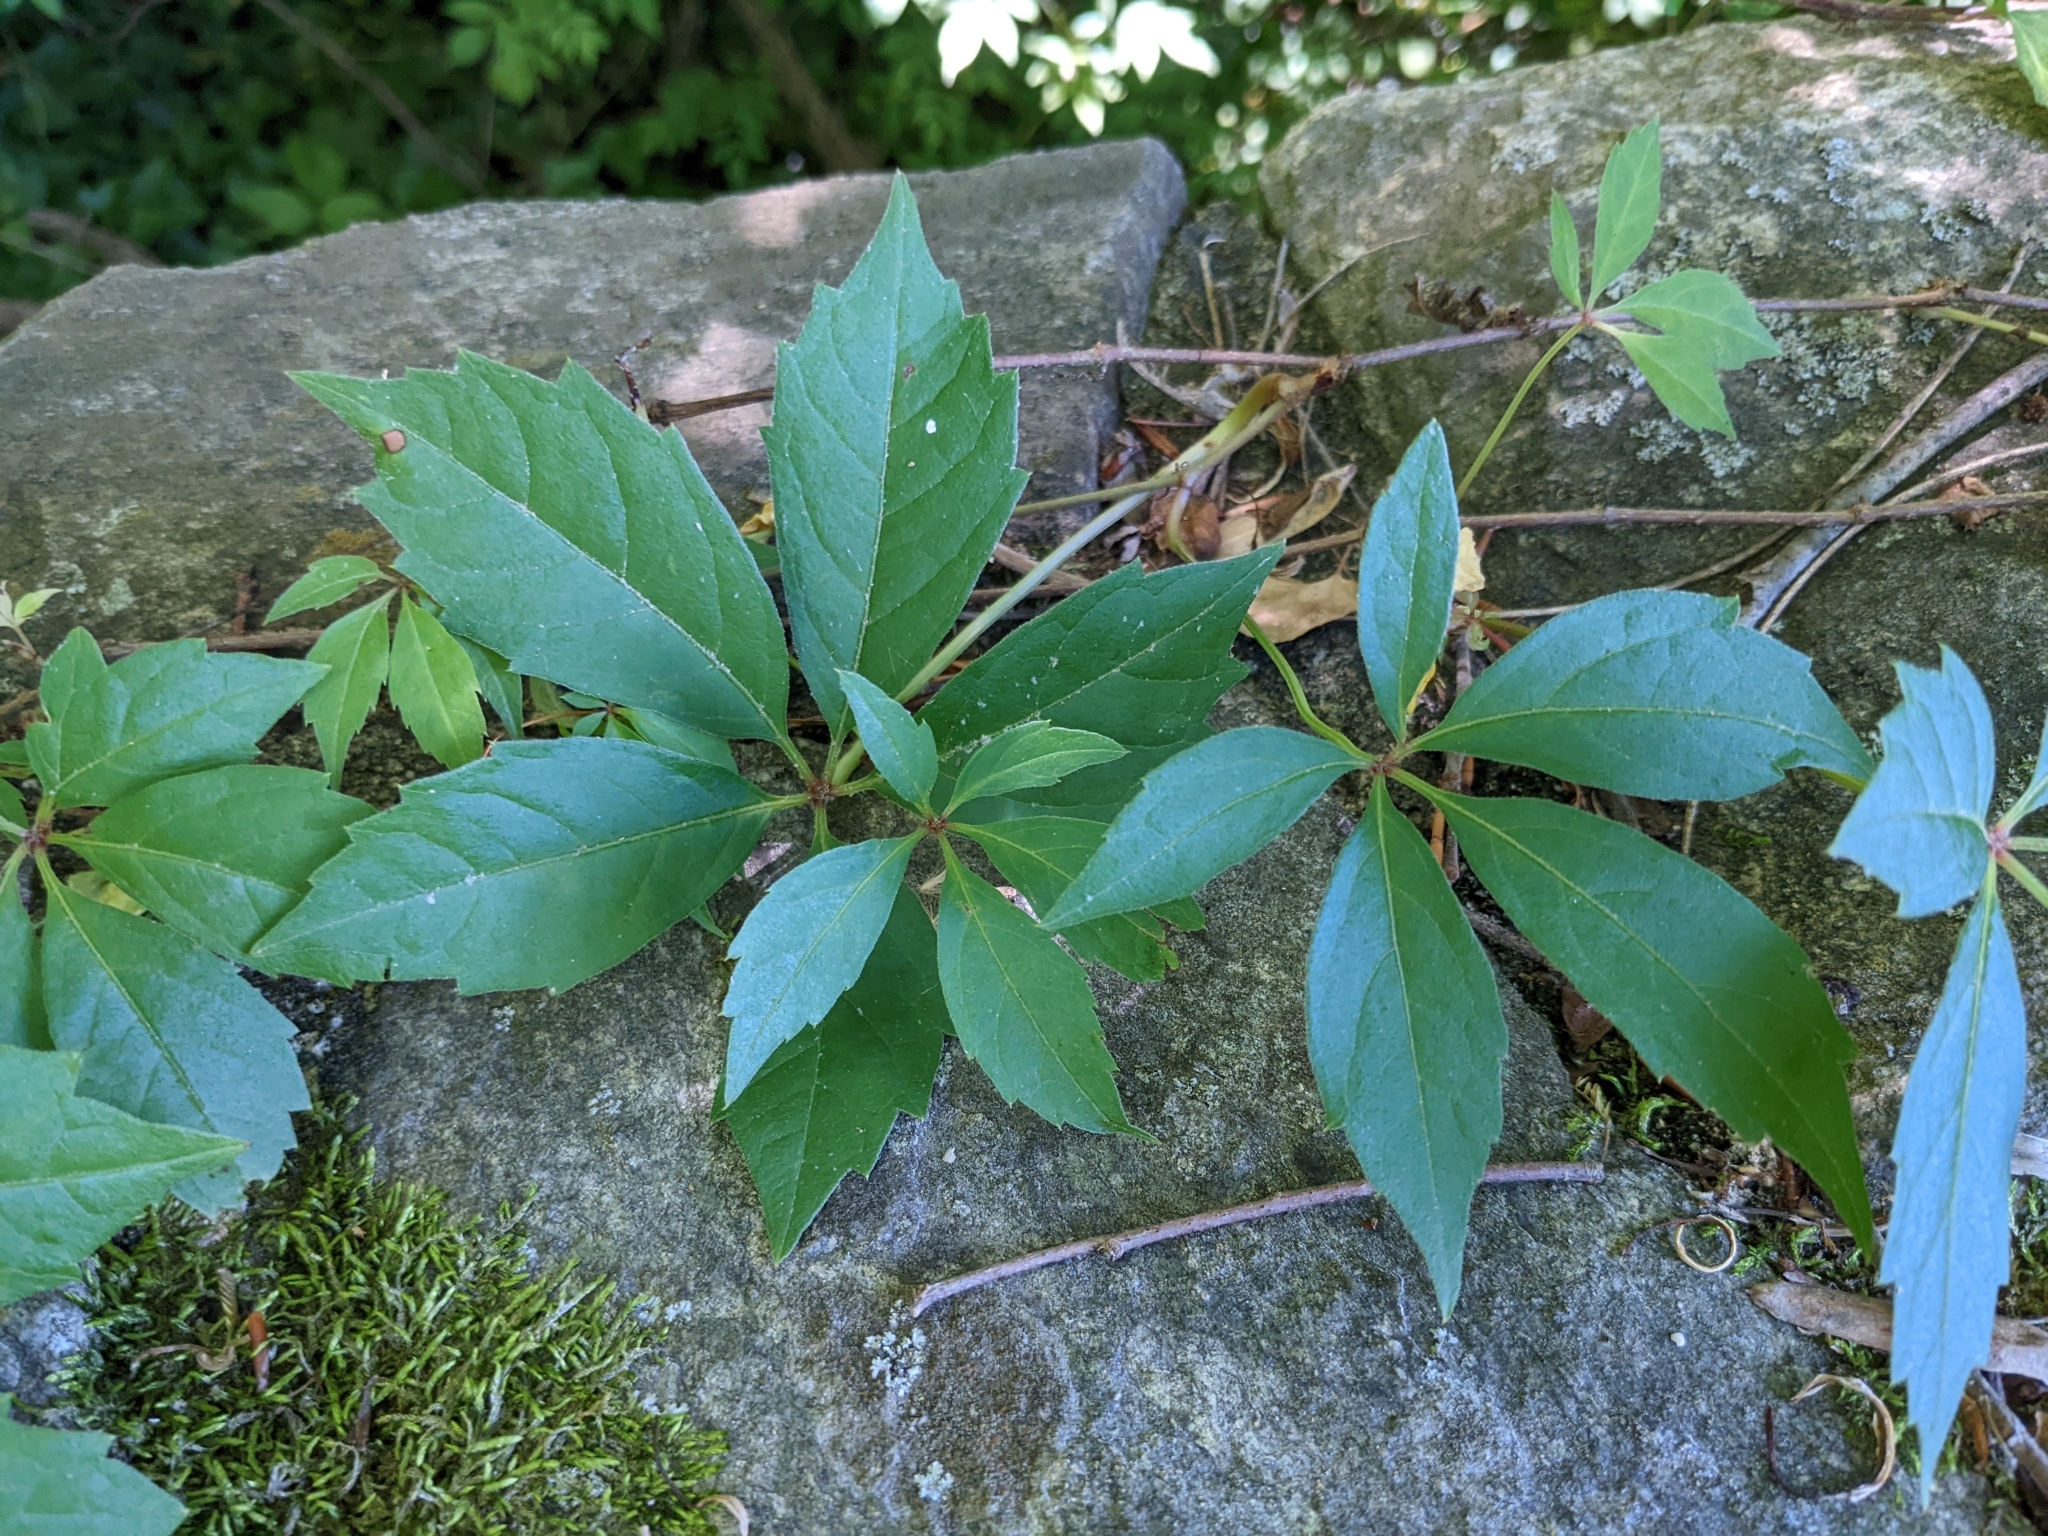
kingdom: Plantae
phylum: Tracheophyta
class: Magnoliopsida
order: Vitales
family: Vitaceae
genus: Parthenocissus
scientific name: Parthenocissus quinquefolia
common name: Virginia-creeper
